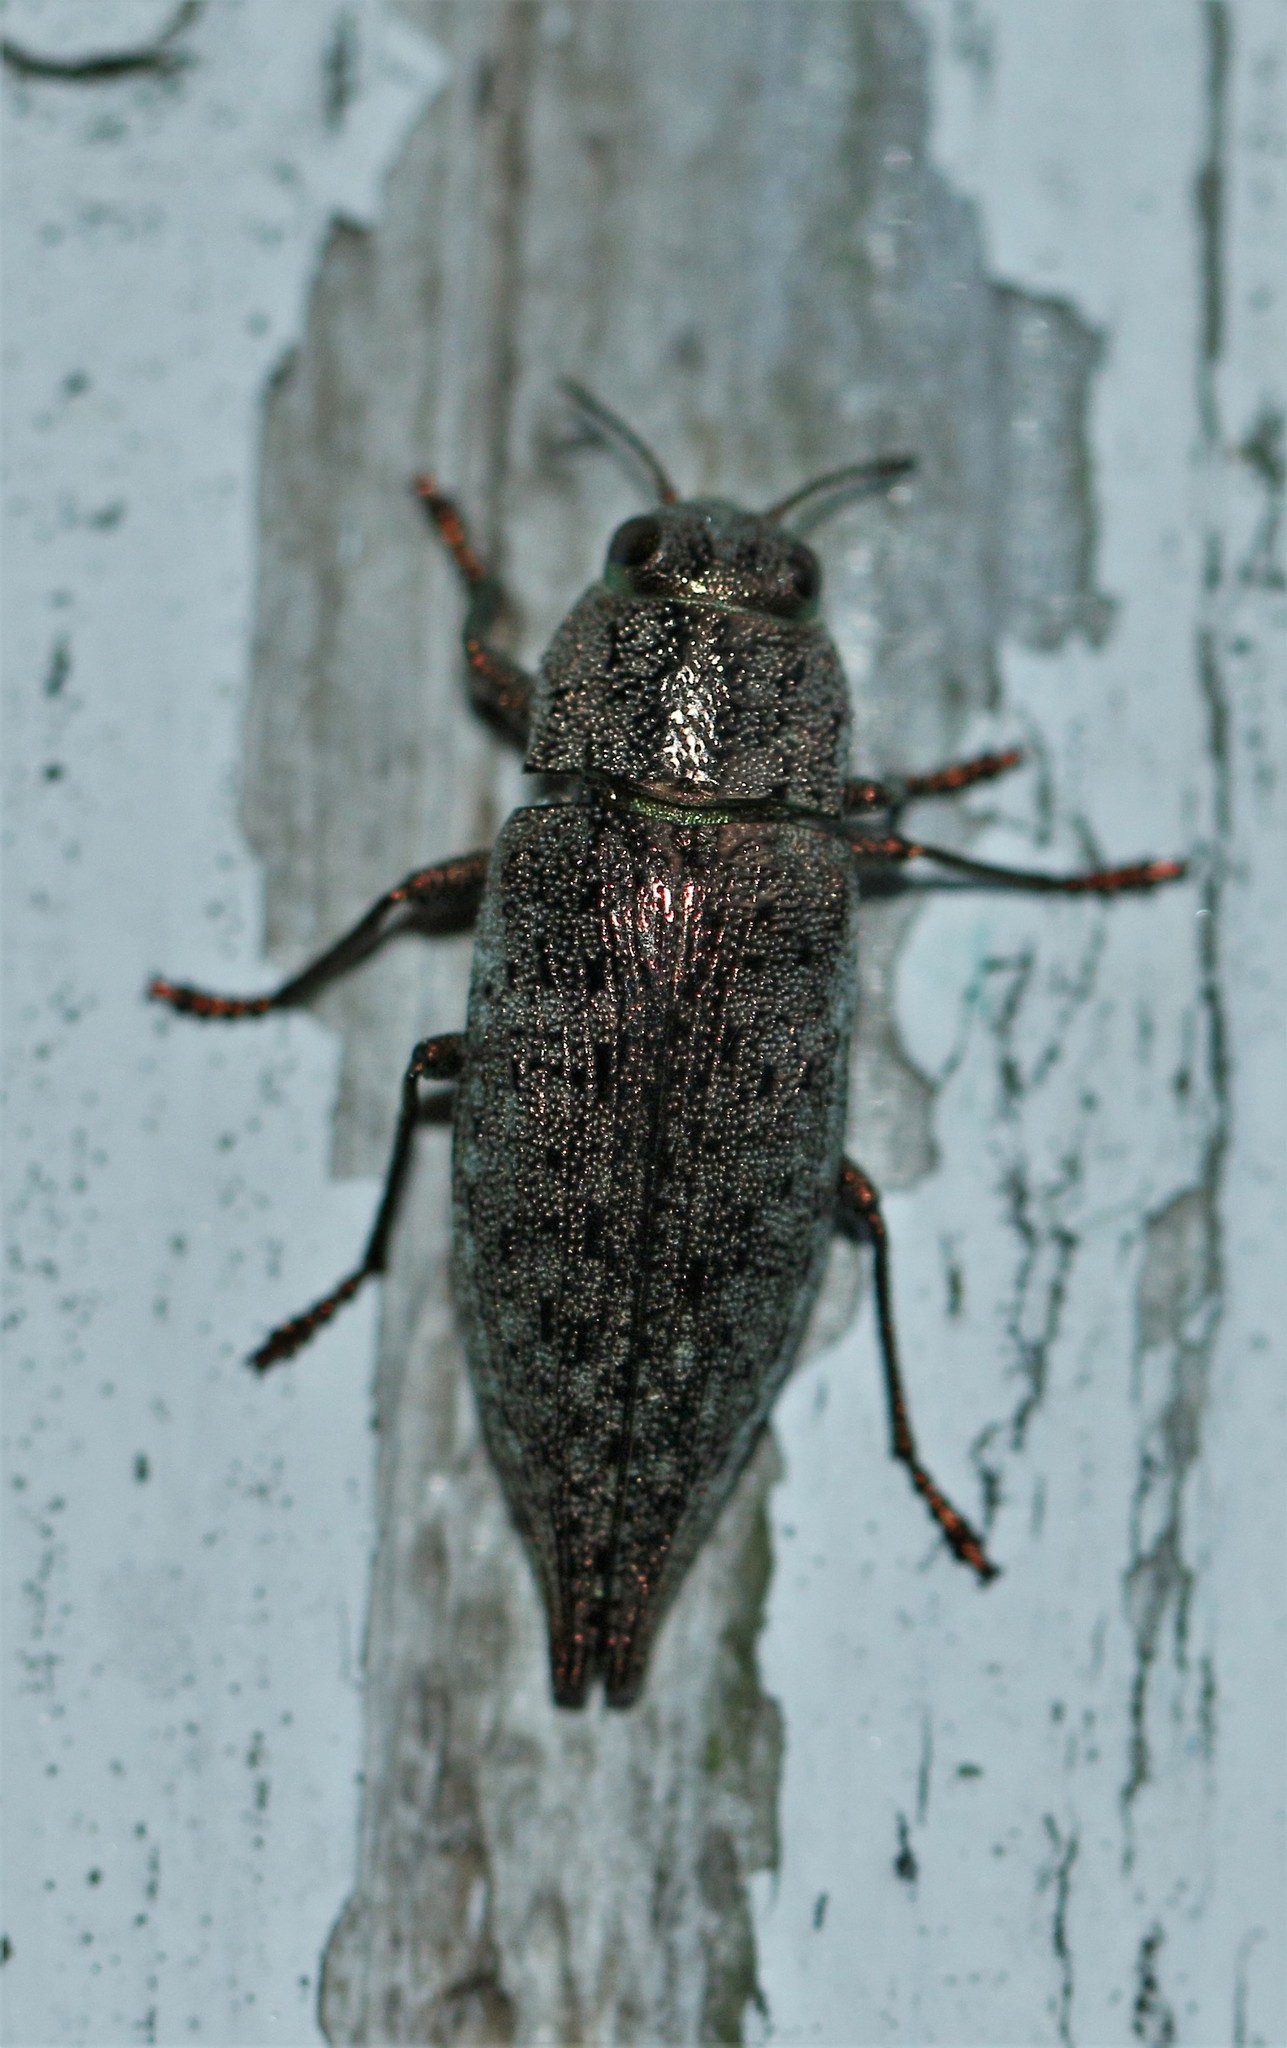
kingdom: Animalia
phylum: Arthropoda
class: Insecta
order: Coleoptera
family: Buprestidae
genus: Dicerca
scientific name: Dicerca divaricata
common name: Flat-headed hardwood borer
